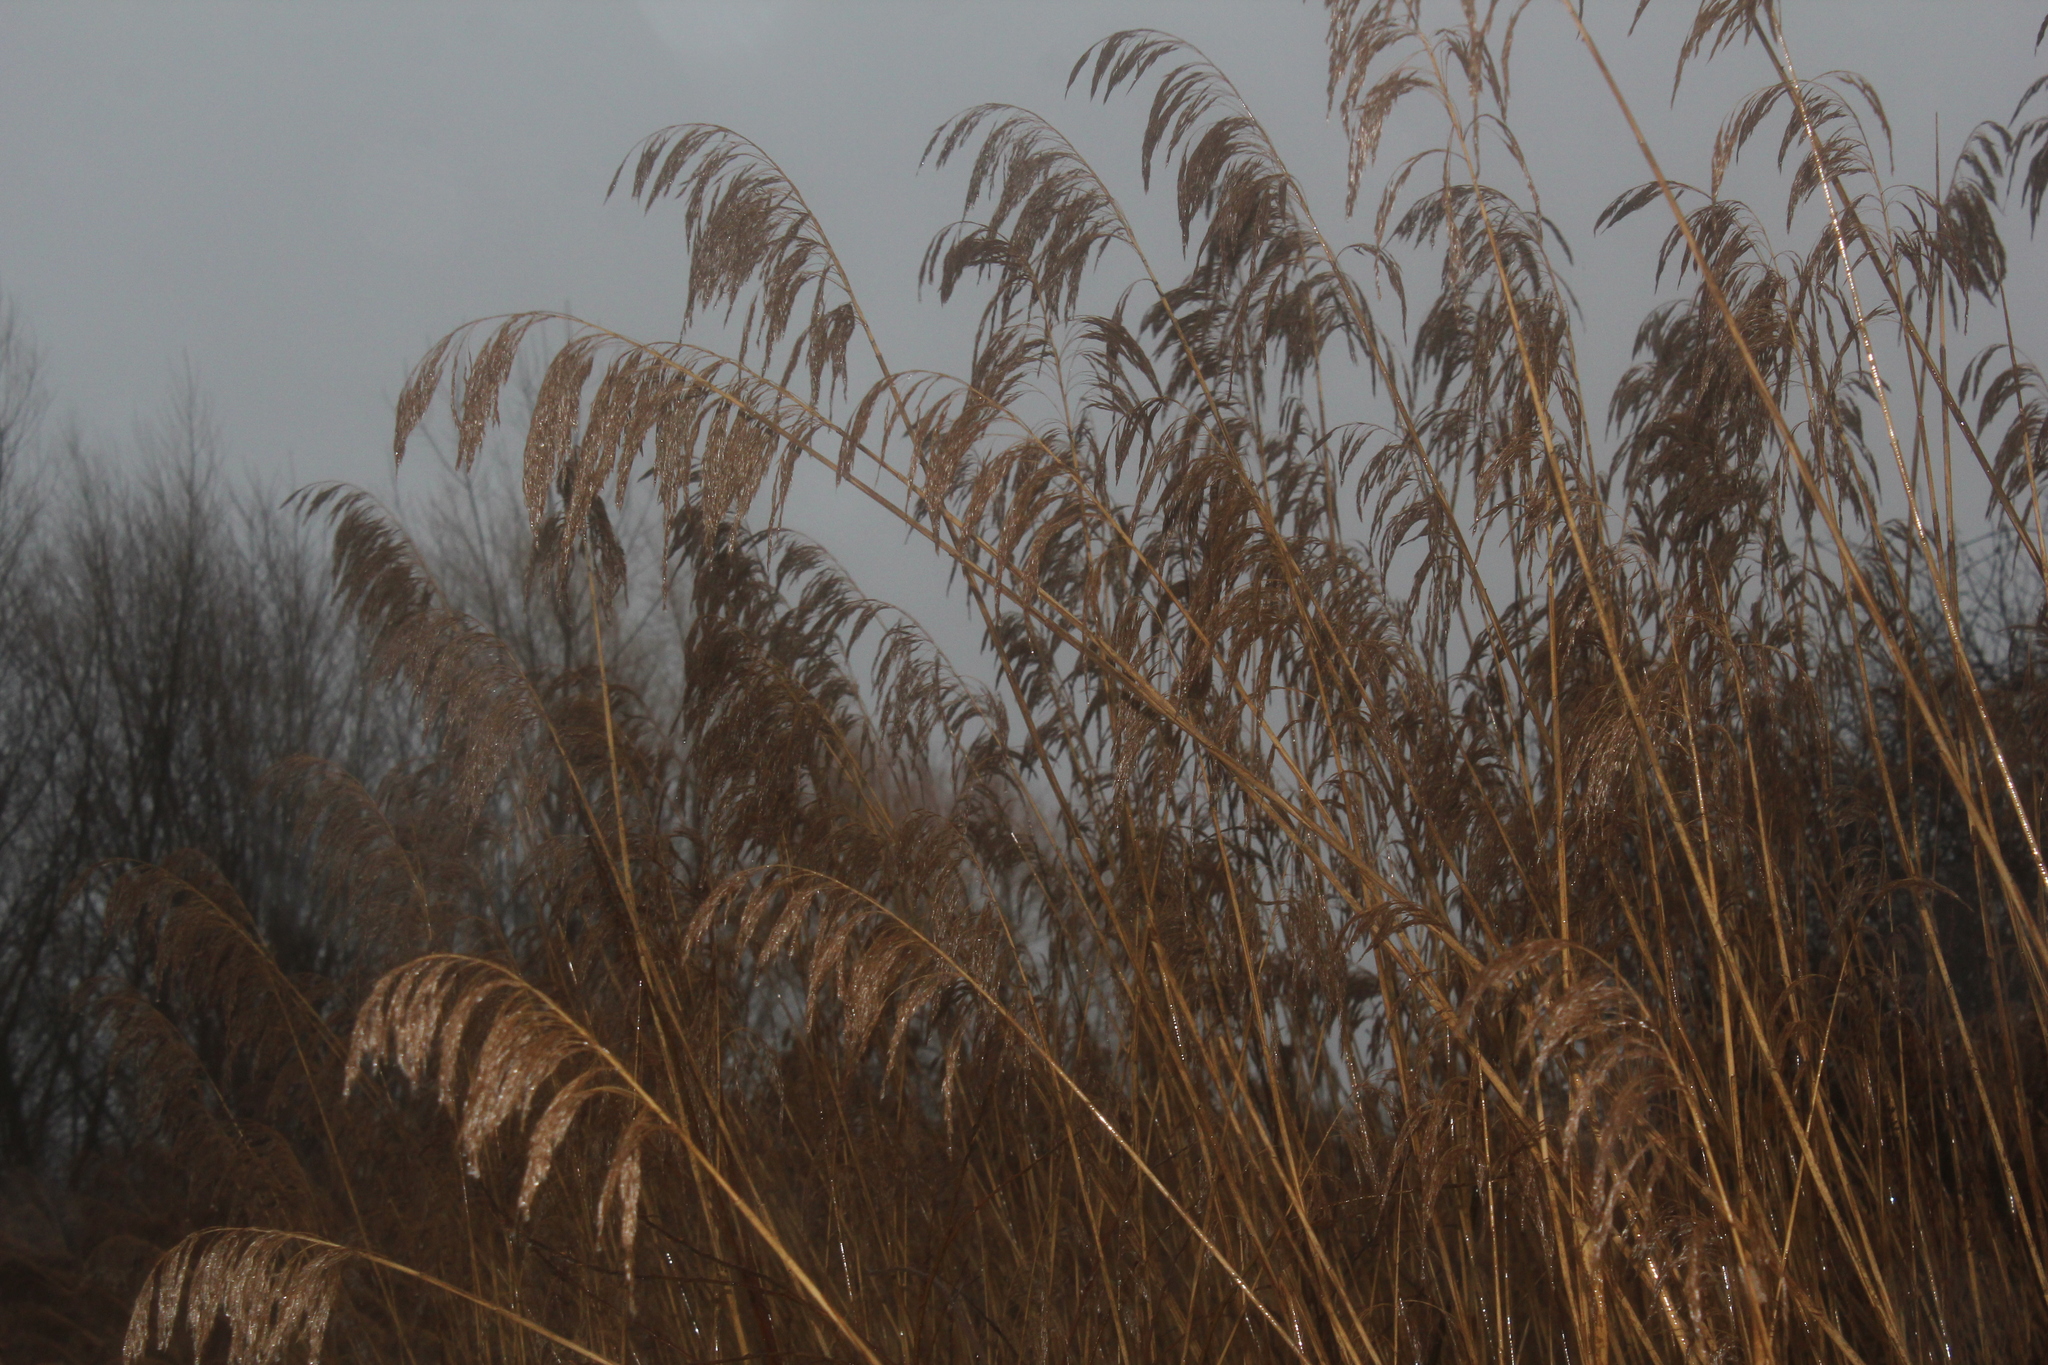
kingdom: Plantae
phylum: Tracheophyta
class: Liliopsida
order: Poales
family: Poaceae
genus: Phragmites
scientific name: Phragmites australis
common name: Common reed
